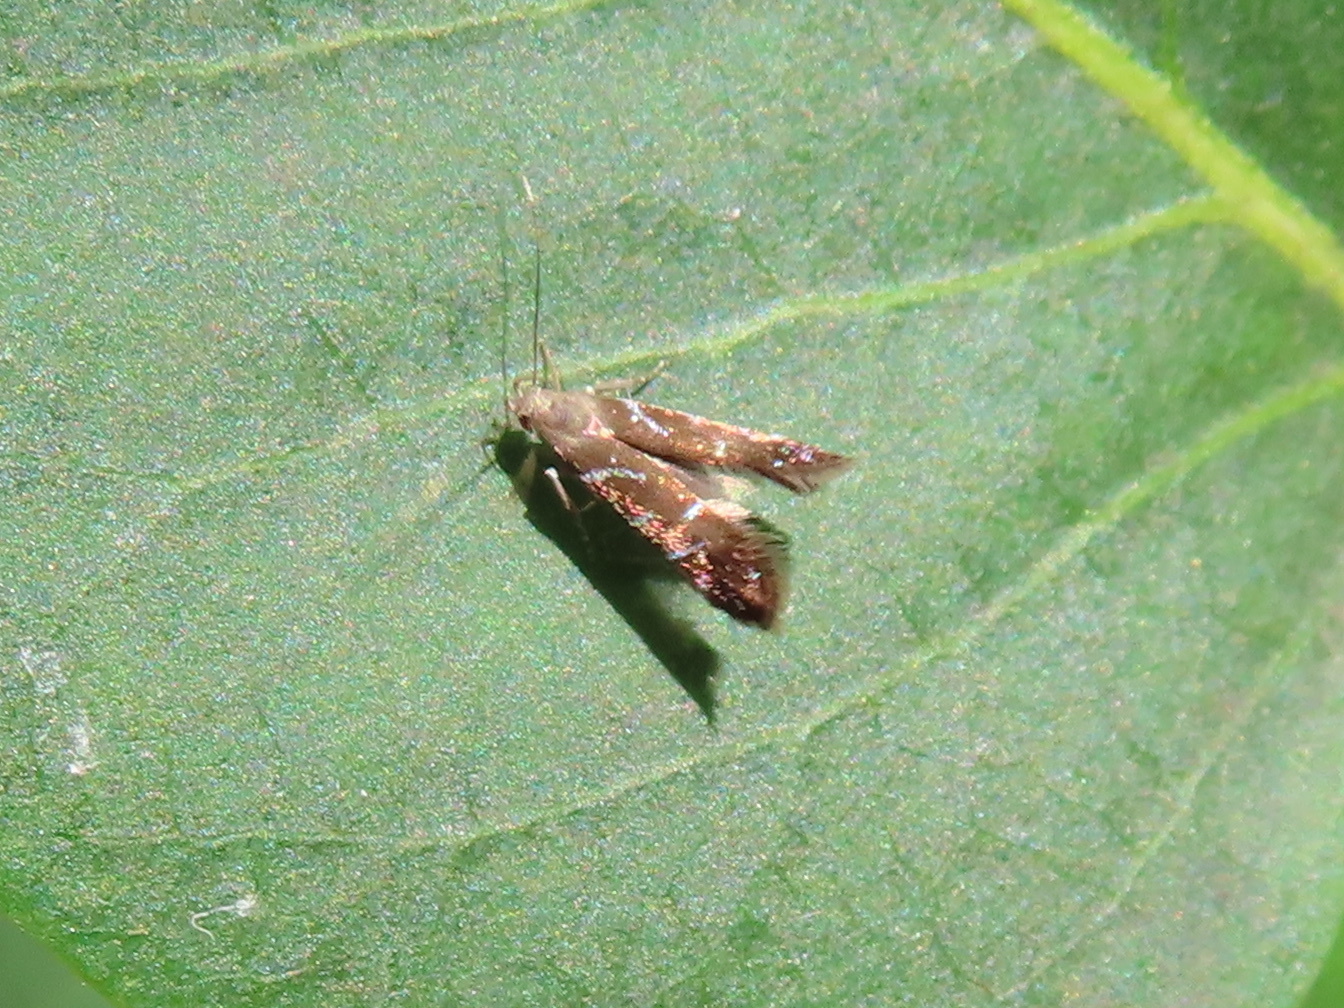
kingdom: Animalia
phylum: Arthropoda
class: Insecta
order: Lepidoptera
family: Gelechiidae
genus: Strobisia
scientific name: Strobisia proserpinella
